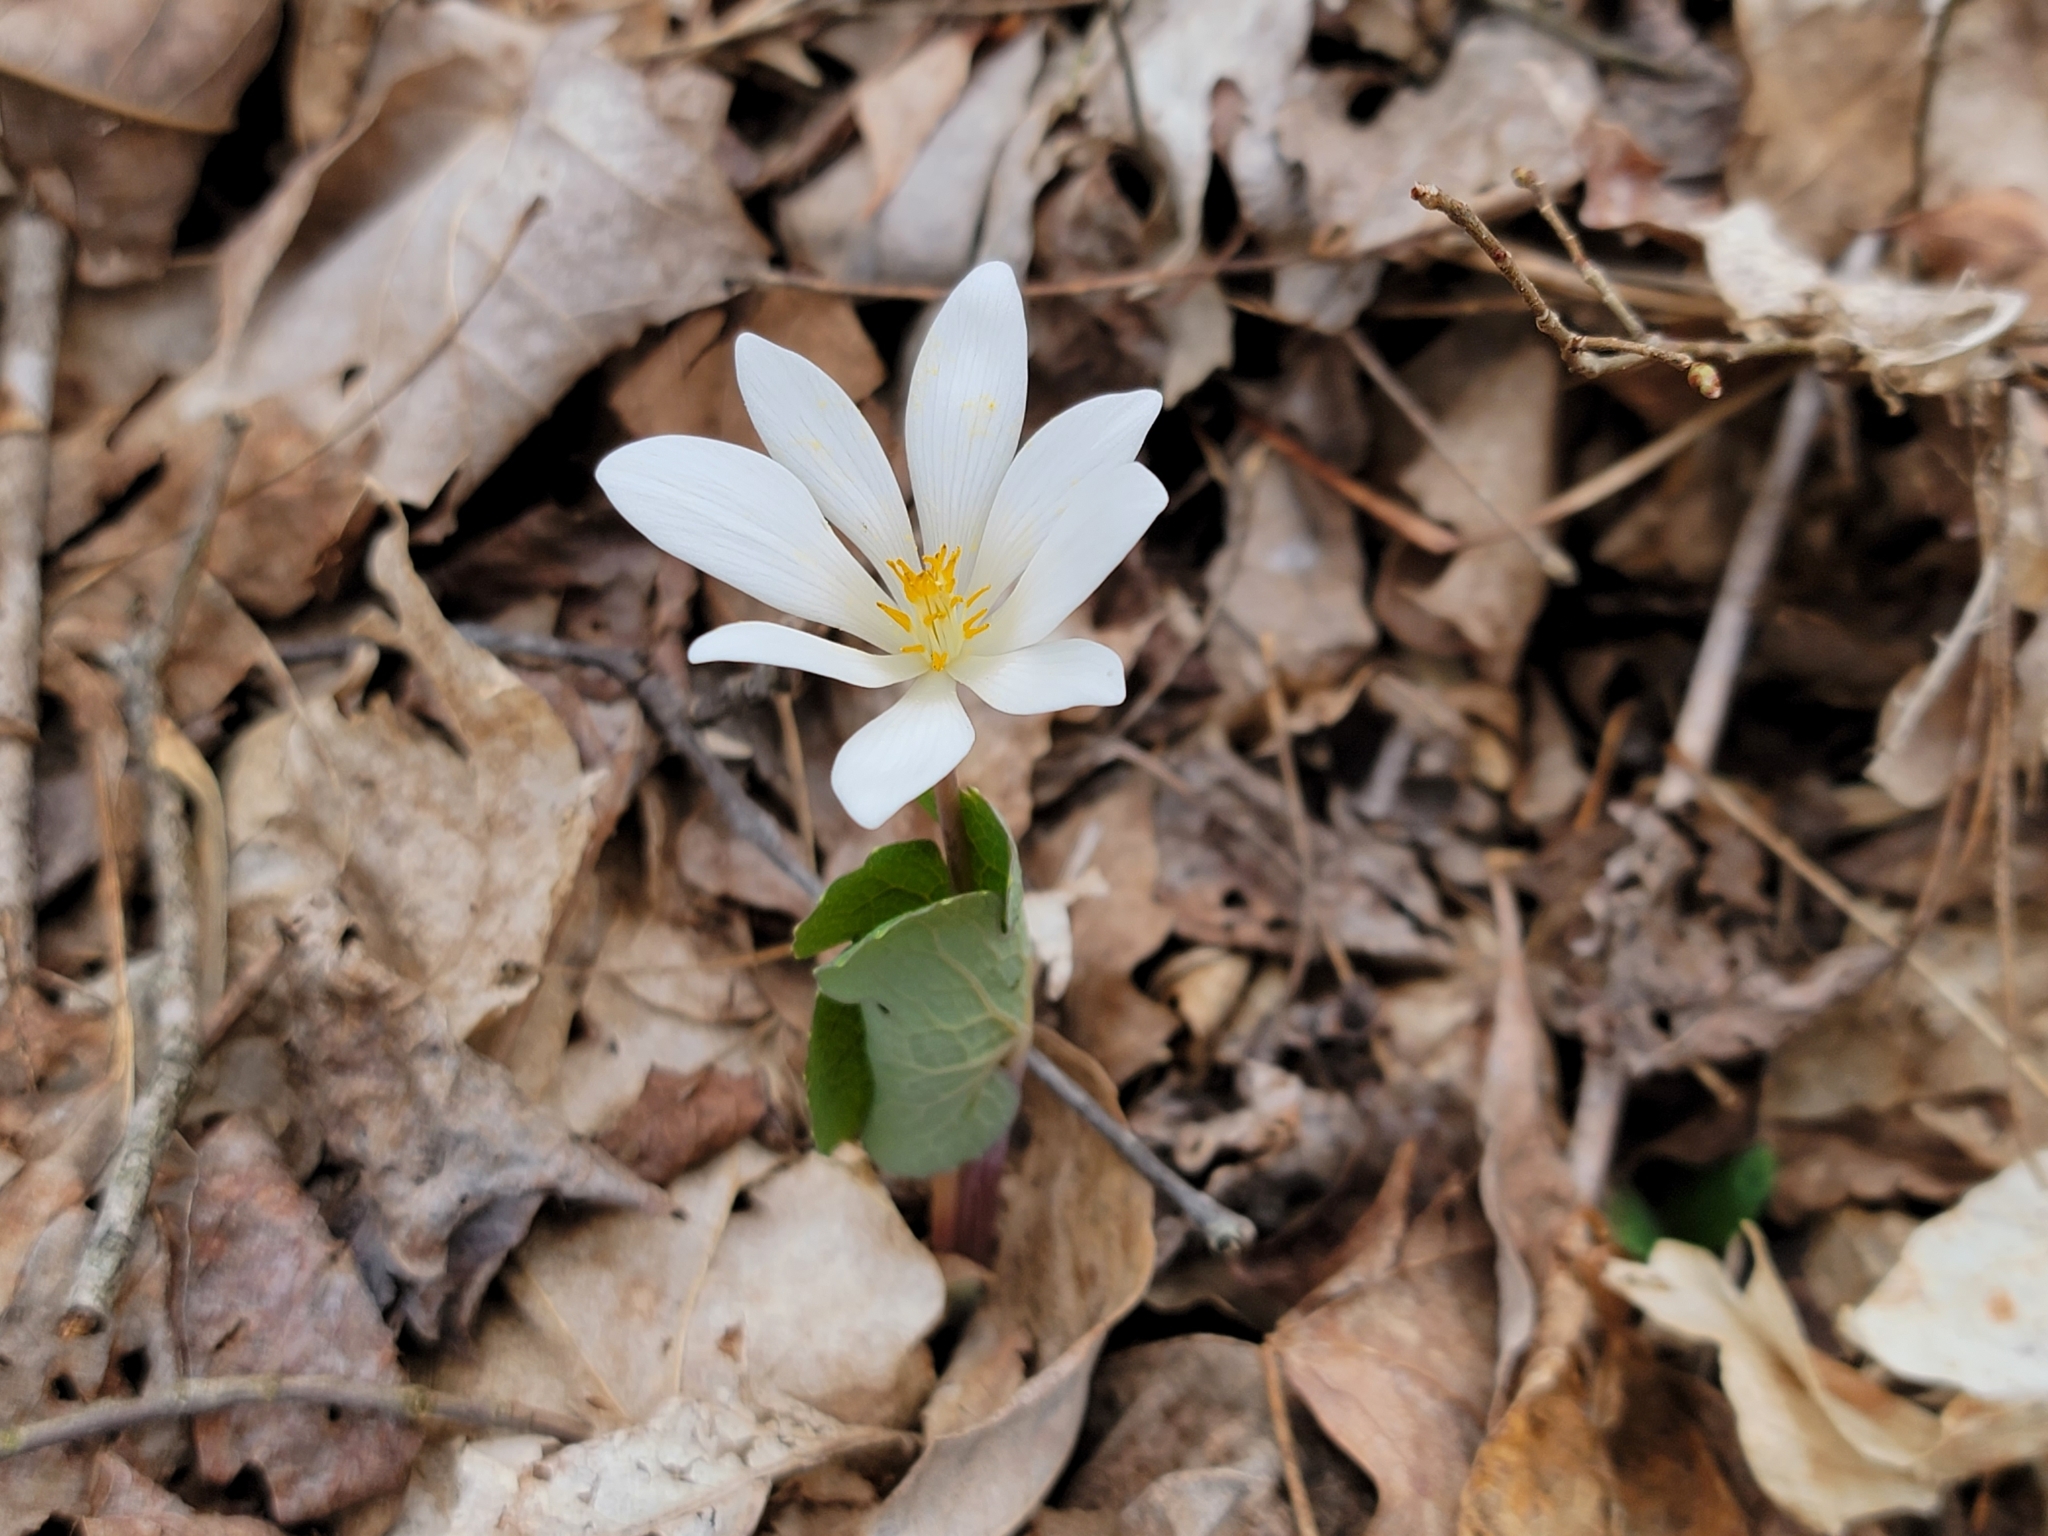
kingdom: Plantae
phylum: Tracheophyta
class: Magnoliopsida
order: Ranunculales
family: Papaveraceae
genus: Sanguinaria
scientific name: Sanguinaria canadensis
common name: Bloodroot
